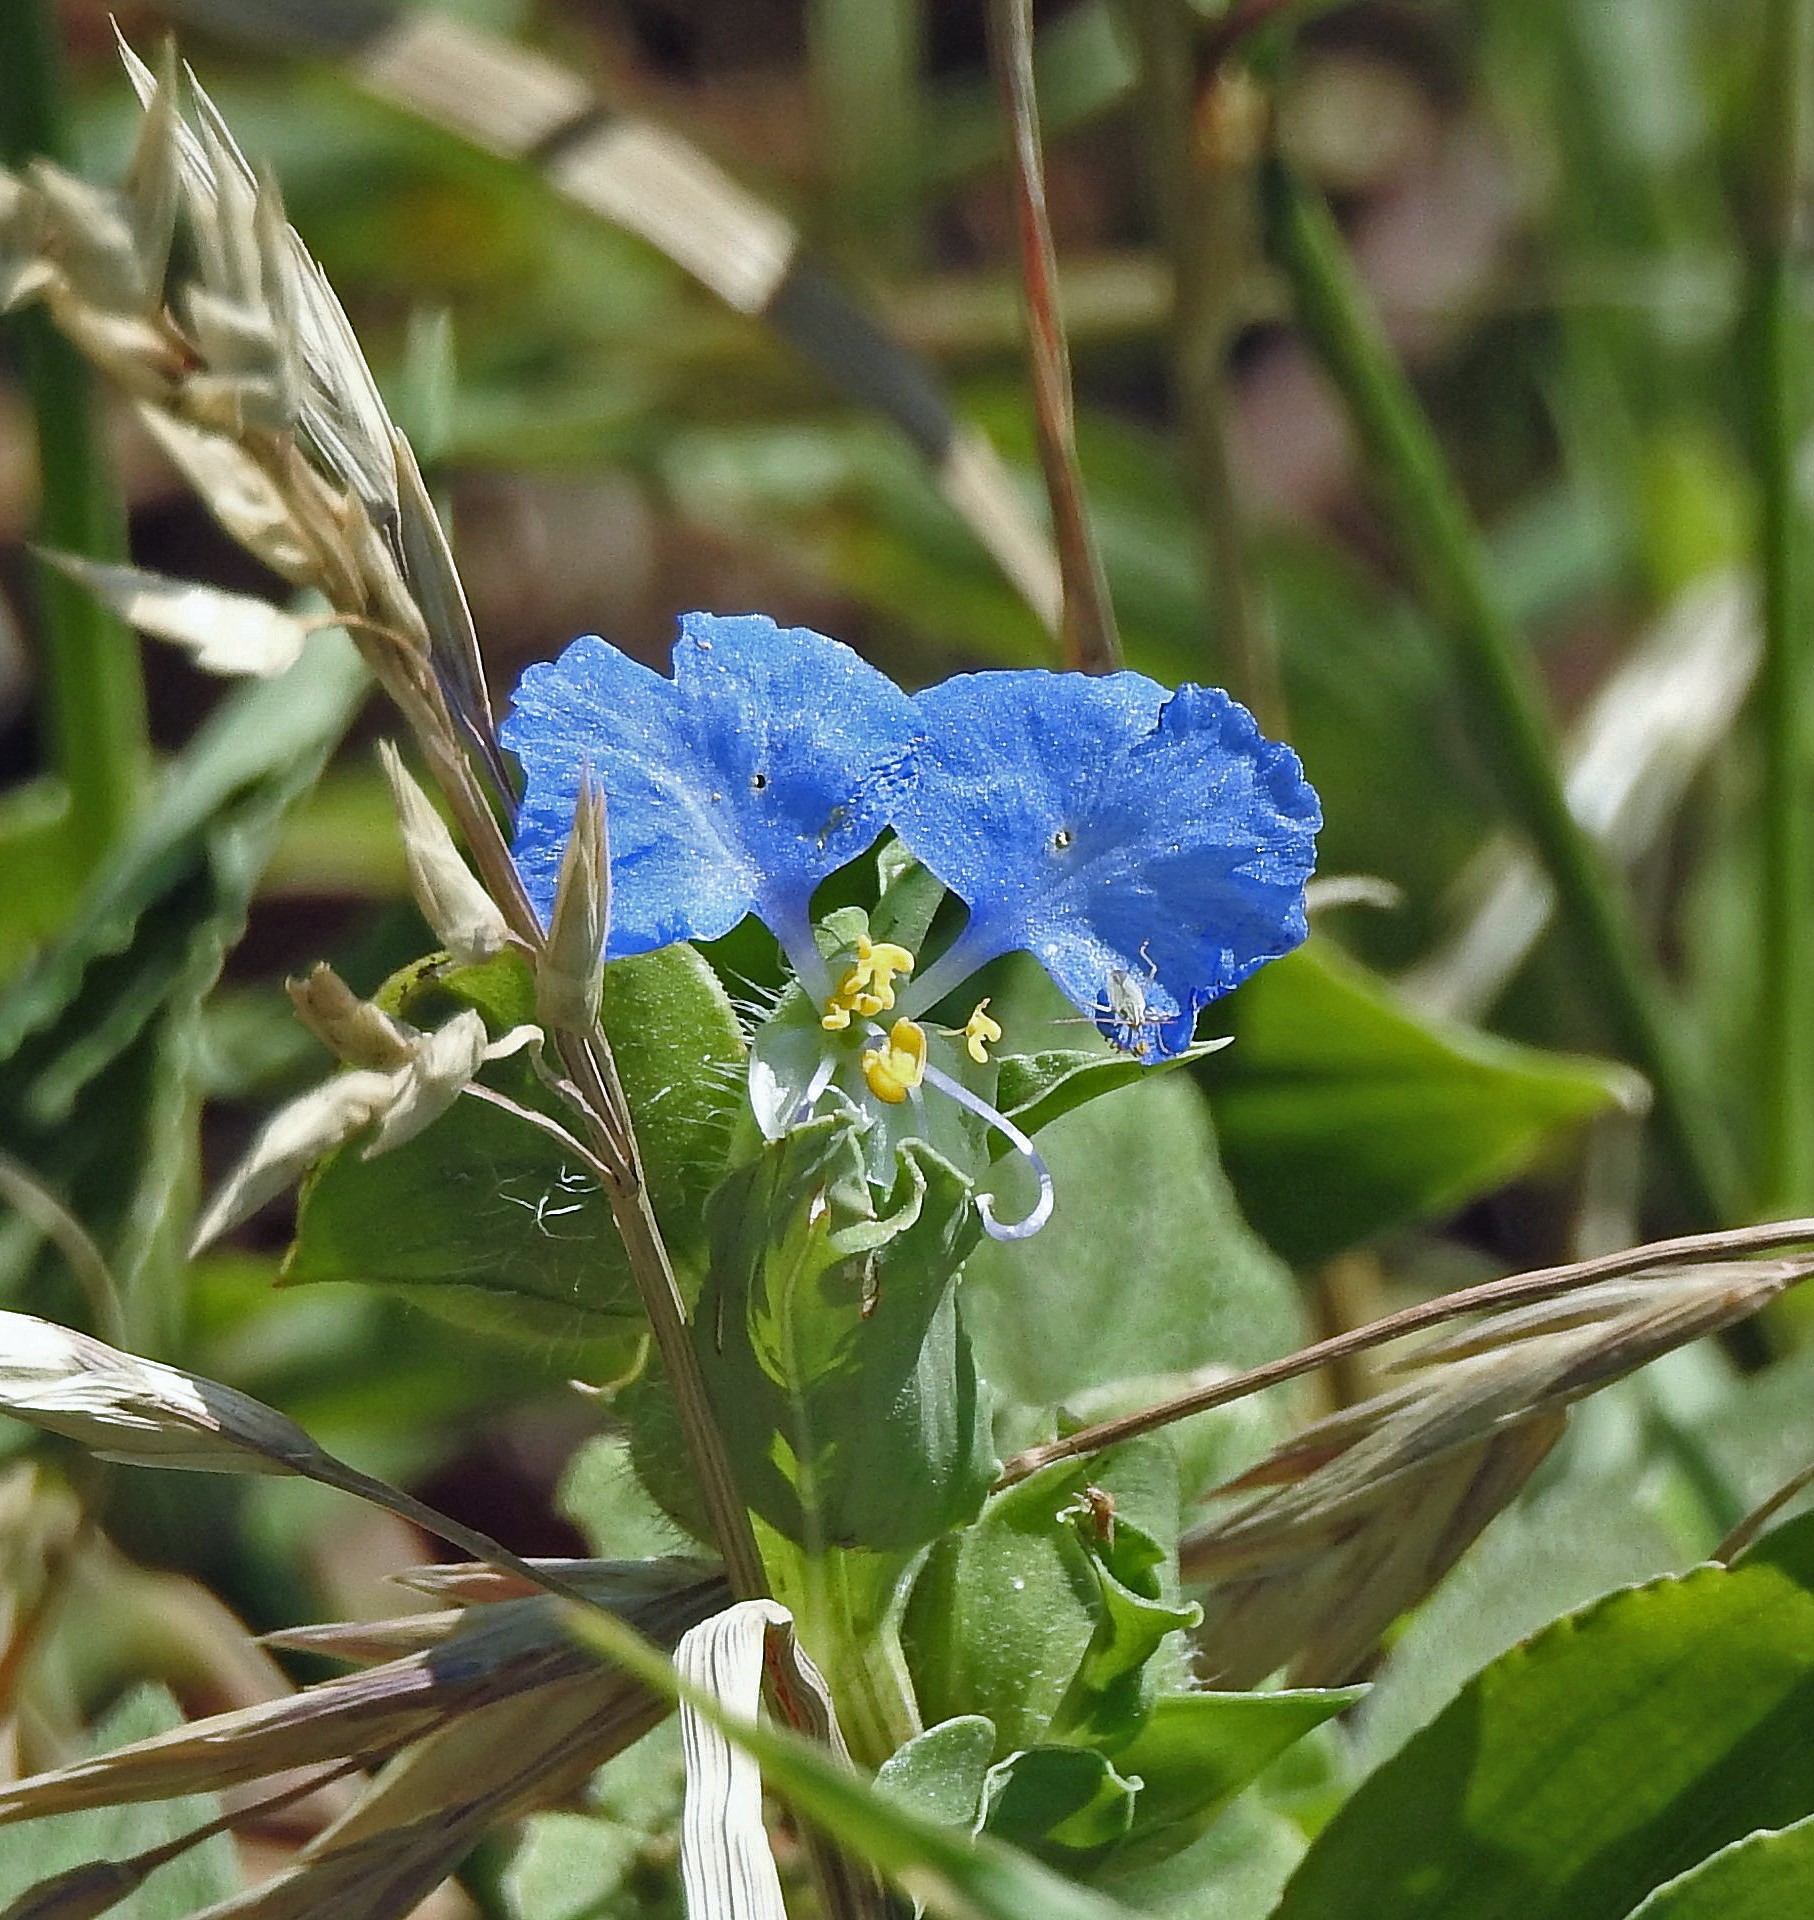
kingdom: Plantae
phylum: Tracheophyta
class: Liliopsida
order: Commelinales
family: Commelinaceae
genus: Commelina
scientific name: Commelina erecta
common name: Blousel blommetjie
